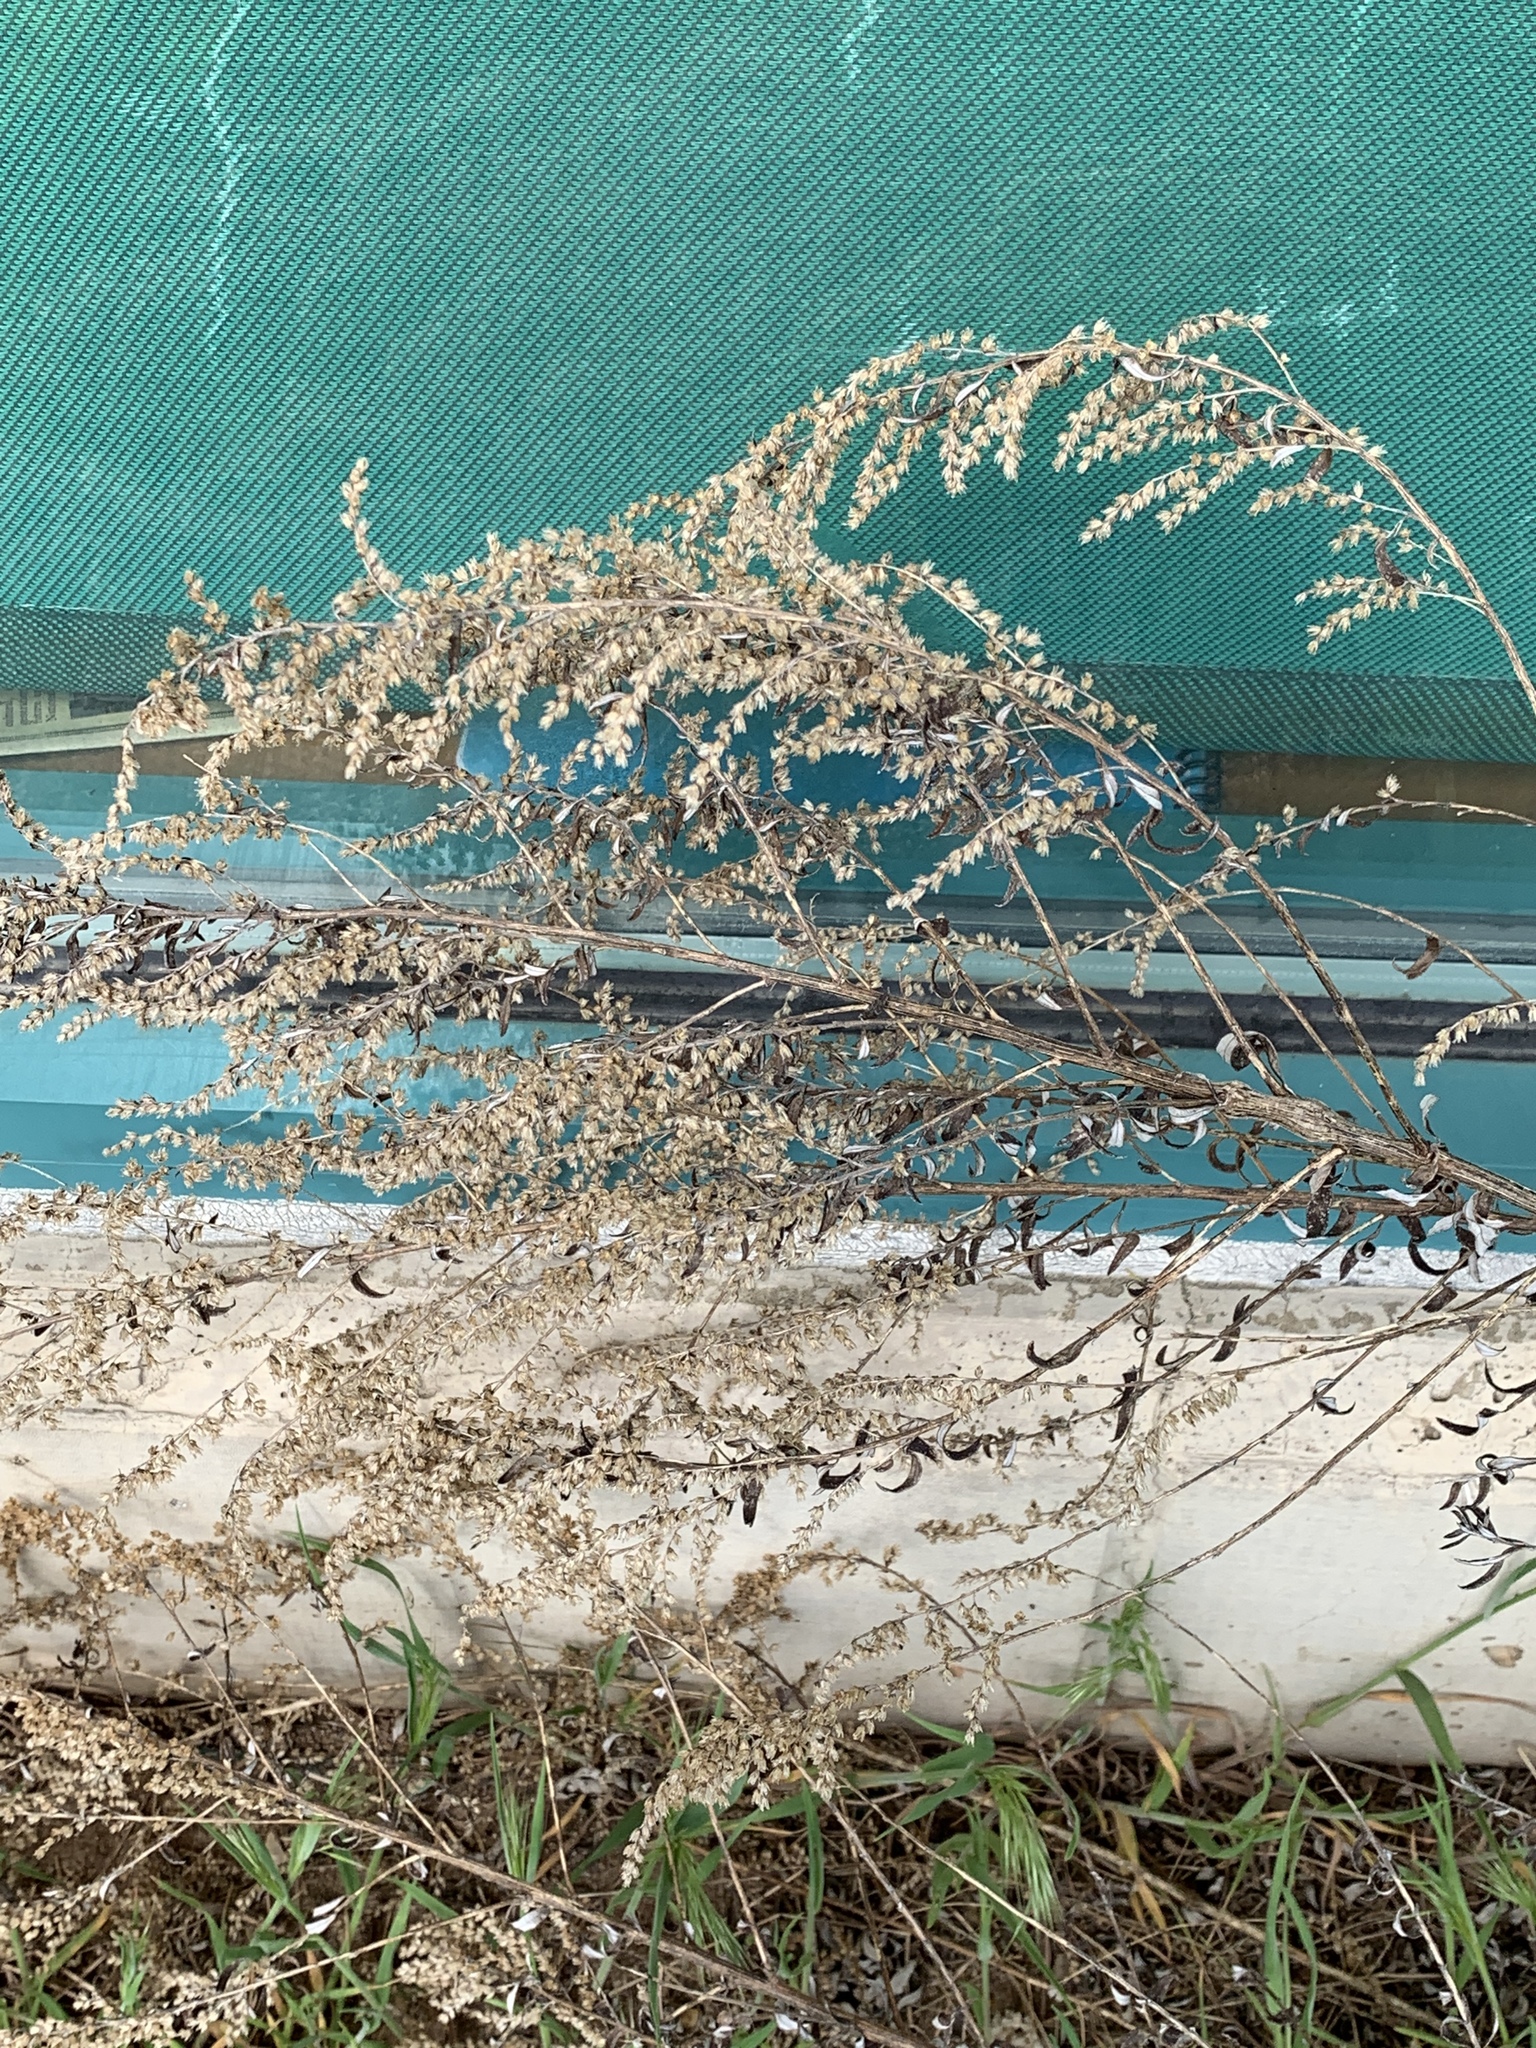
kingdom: Plantae
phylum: Tracheophyta
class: Magnoliopsida
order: Asterales
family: Asteraceae
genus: Artemisia
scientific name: Artemisia vulgaris
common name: Mugwort
